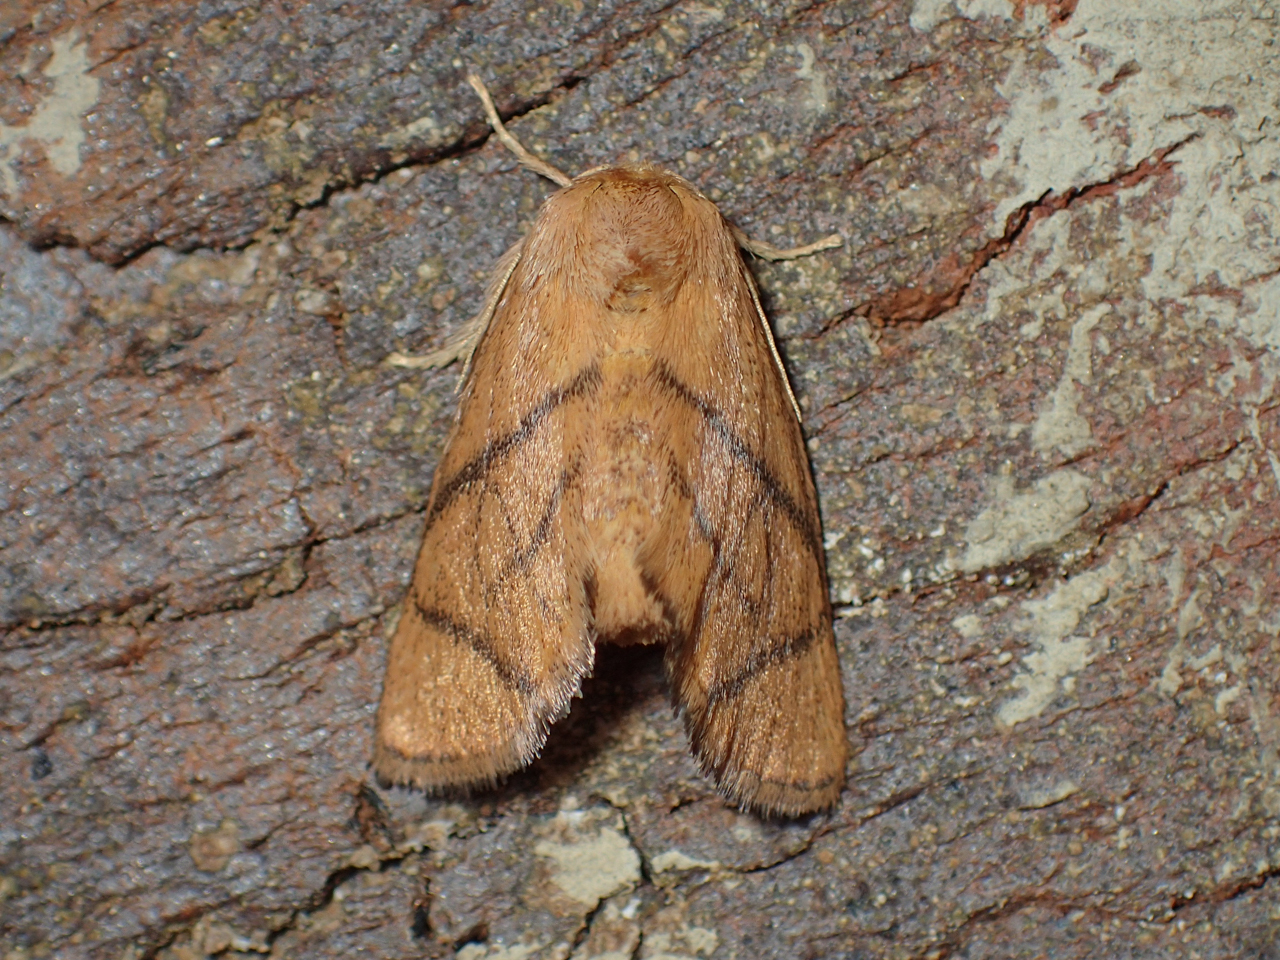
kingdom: Animalia
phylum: Arthropoda
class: Insecta
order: Lepidoptera
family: Limacodidae
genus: Apoda
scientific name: Apoda y-inversa
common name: Yellow-collared slug moth
